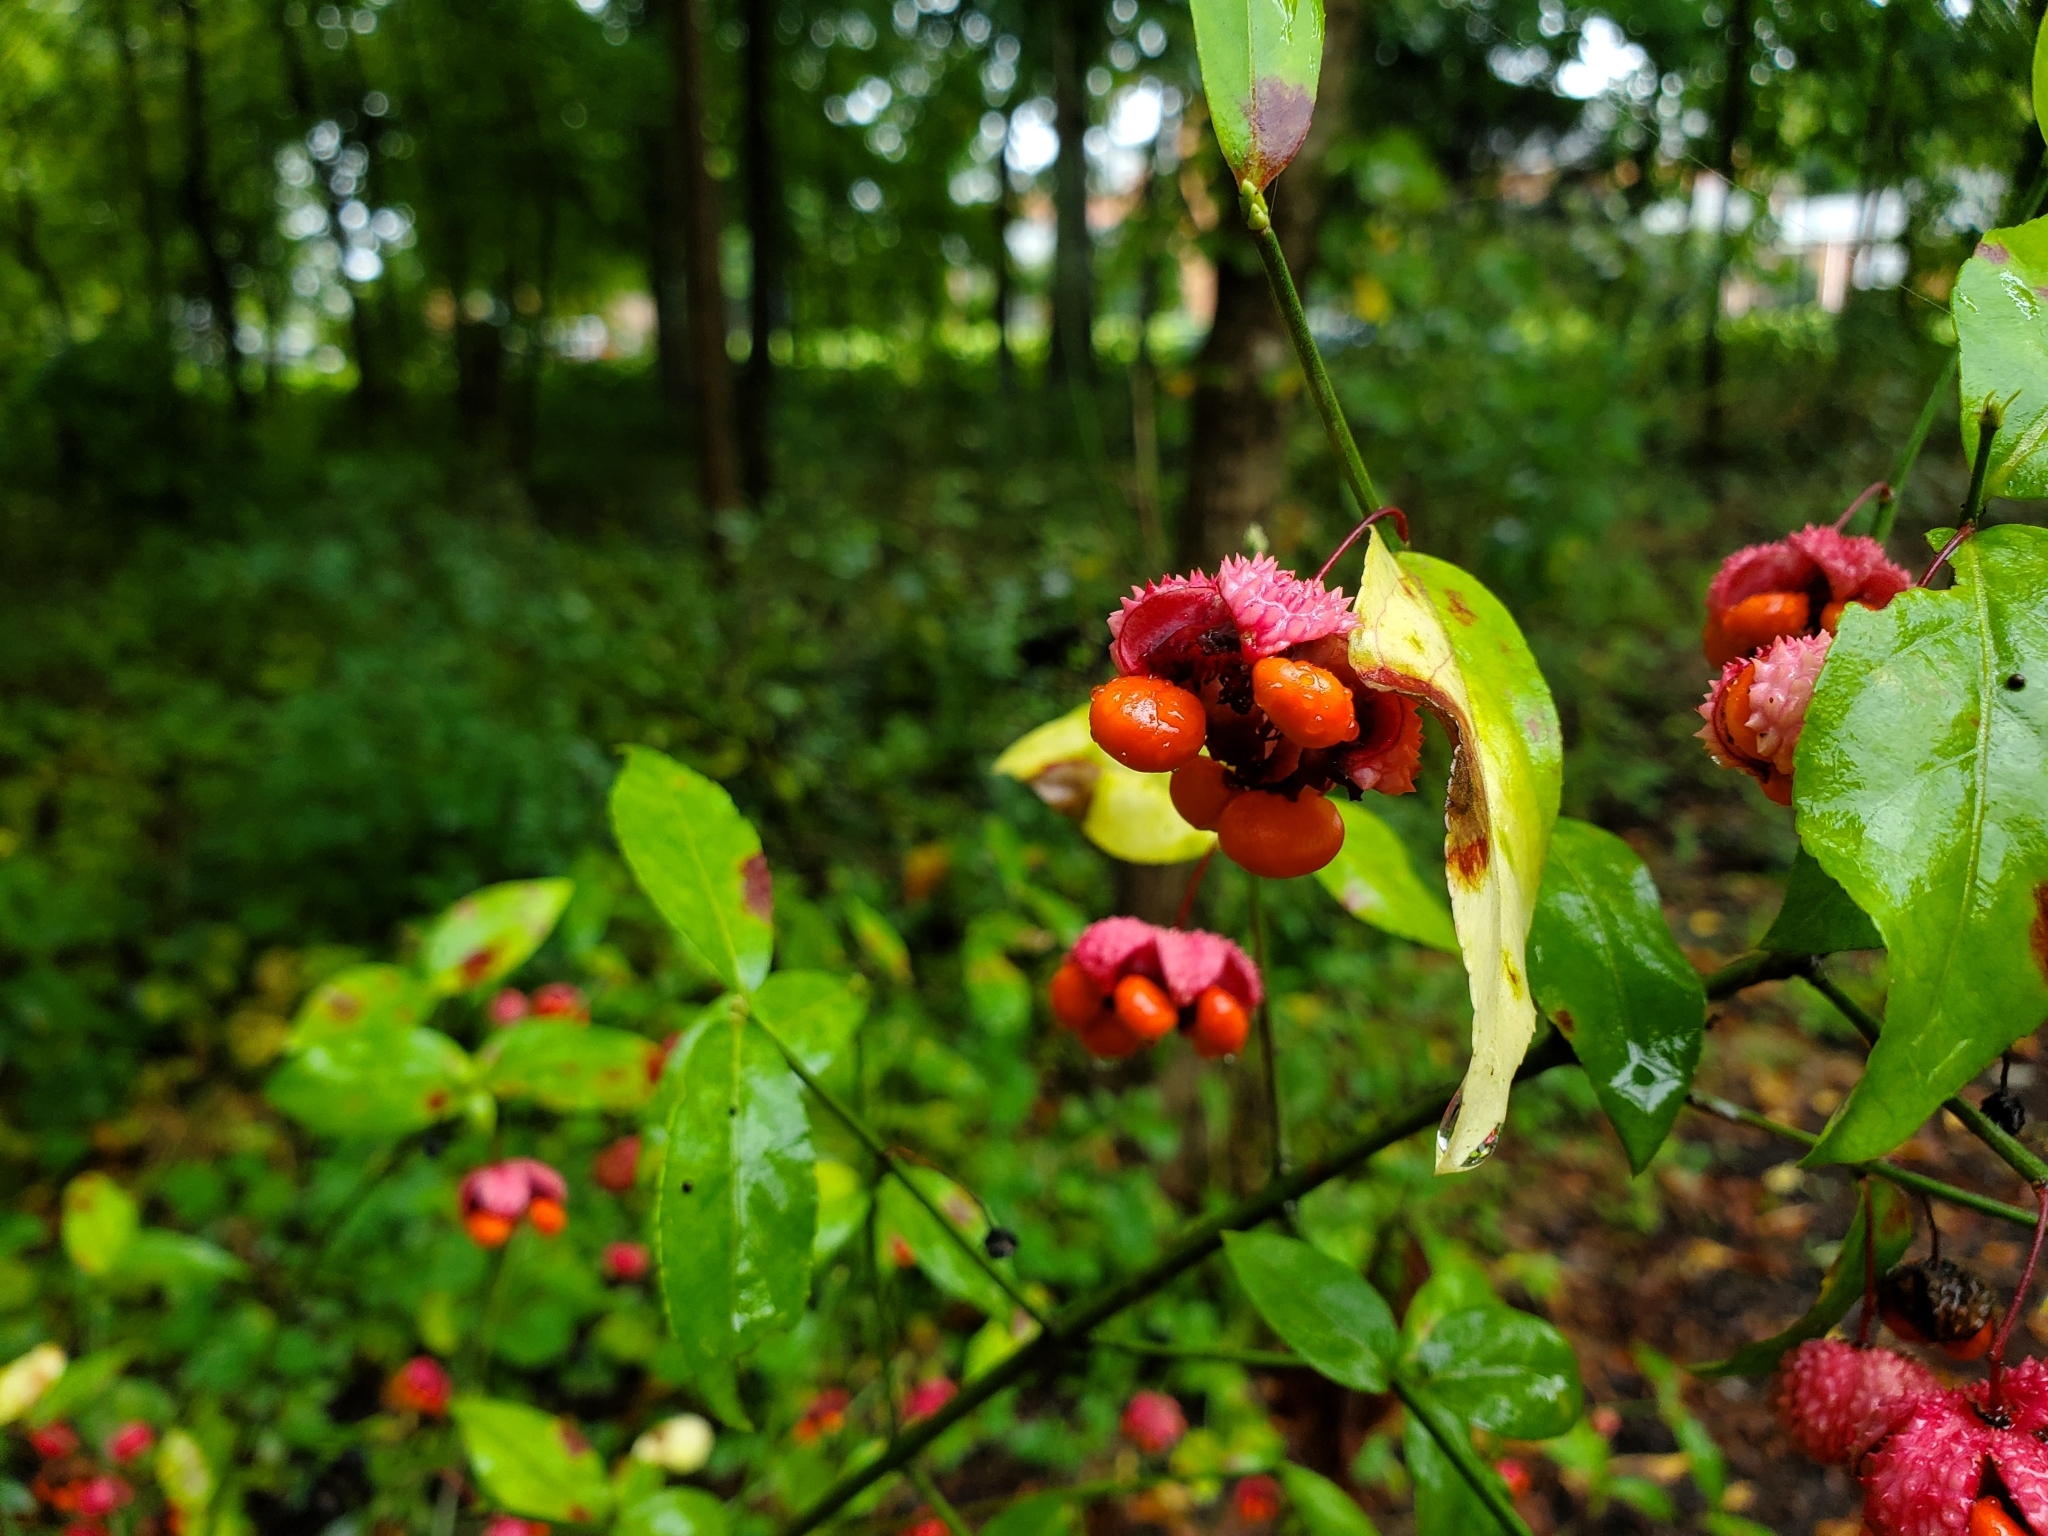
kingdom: Plantae
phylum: Tracheophyta
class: Magnoliopsida
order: Celastrales
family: Celastraceae
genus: Euonymus
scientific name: Euonymus americanus
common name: Bursting-heart
